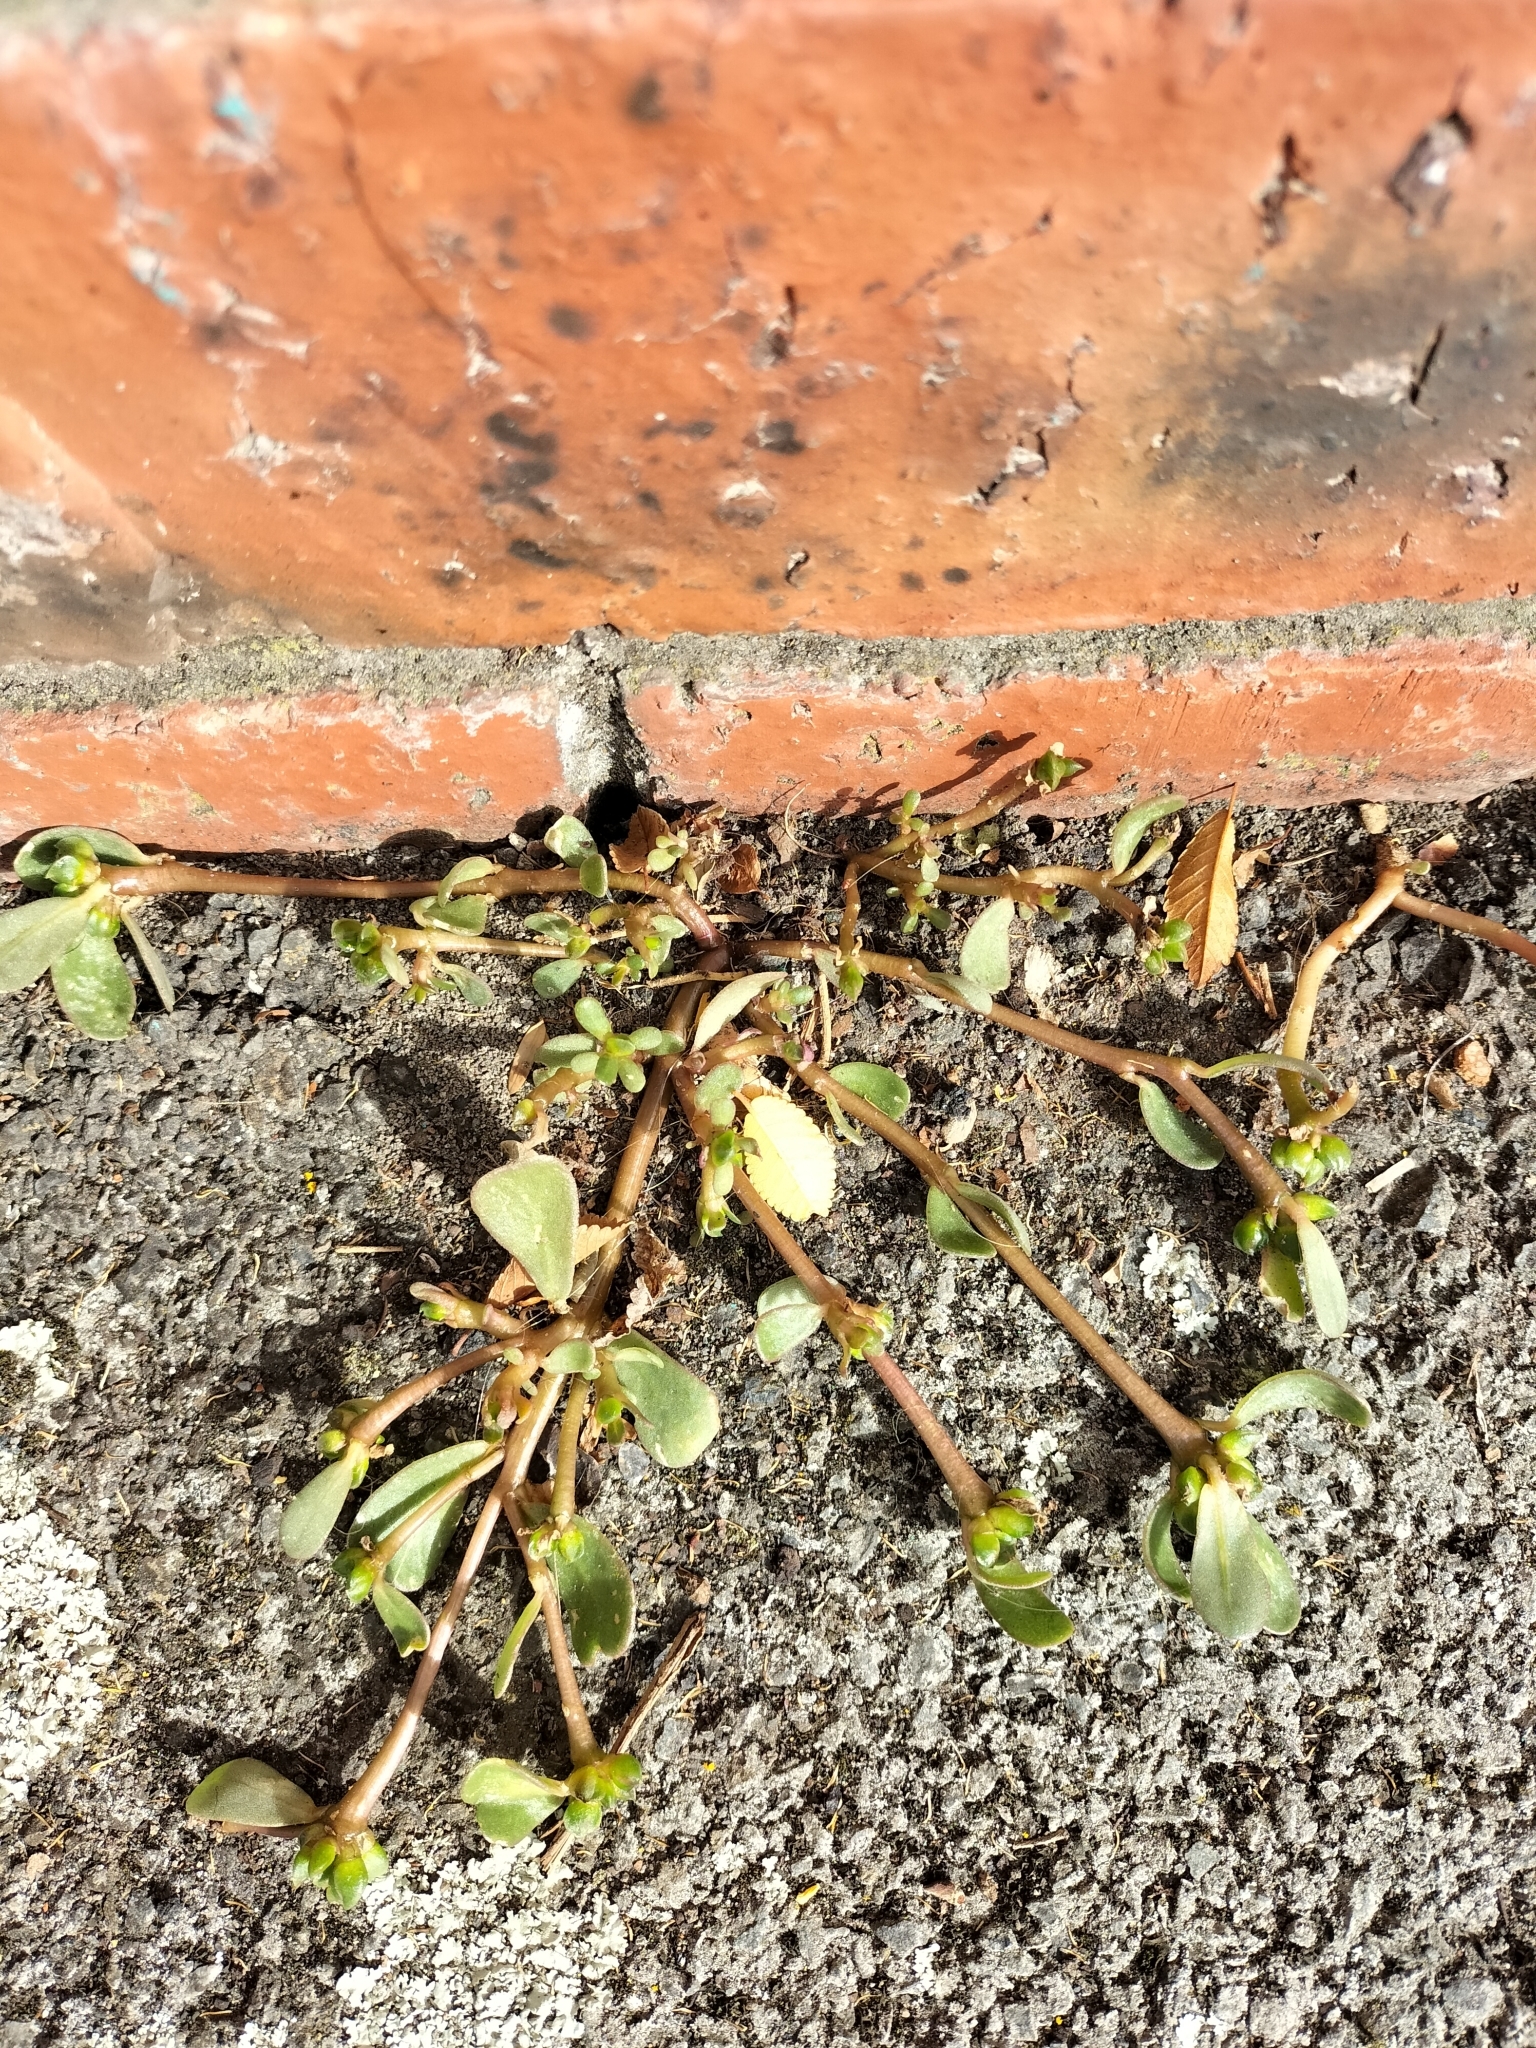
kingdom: Plantae
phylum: Tracheophyta
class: Magnoliopsida
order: Caryophyllales
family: Portulacaceae
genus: Portulaca
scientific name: Portulaca oleracea
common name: Common purslane
